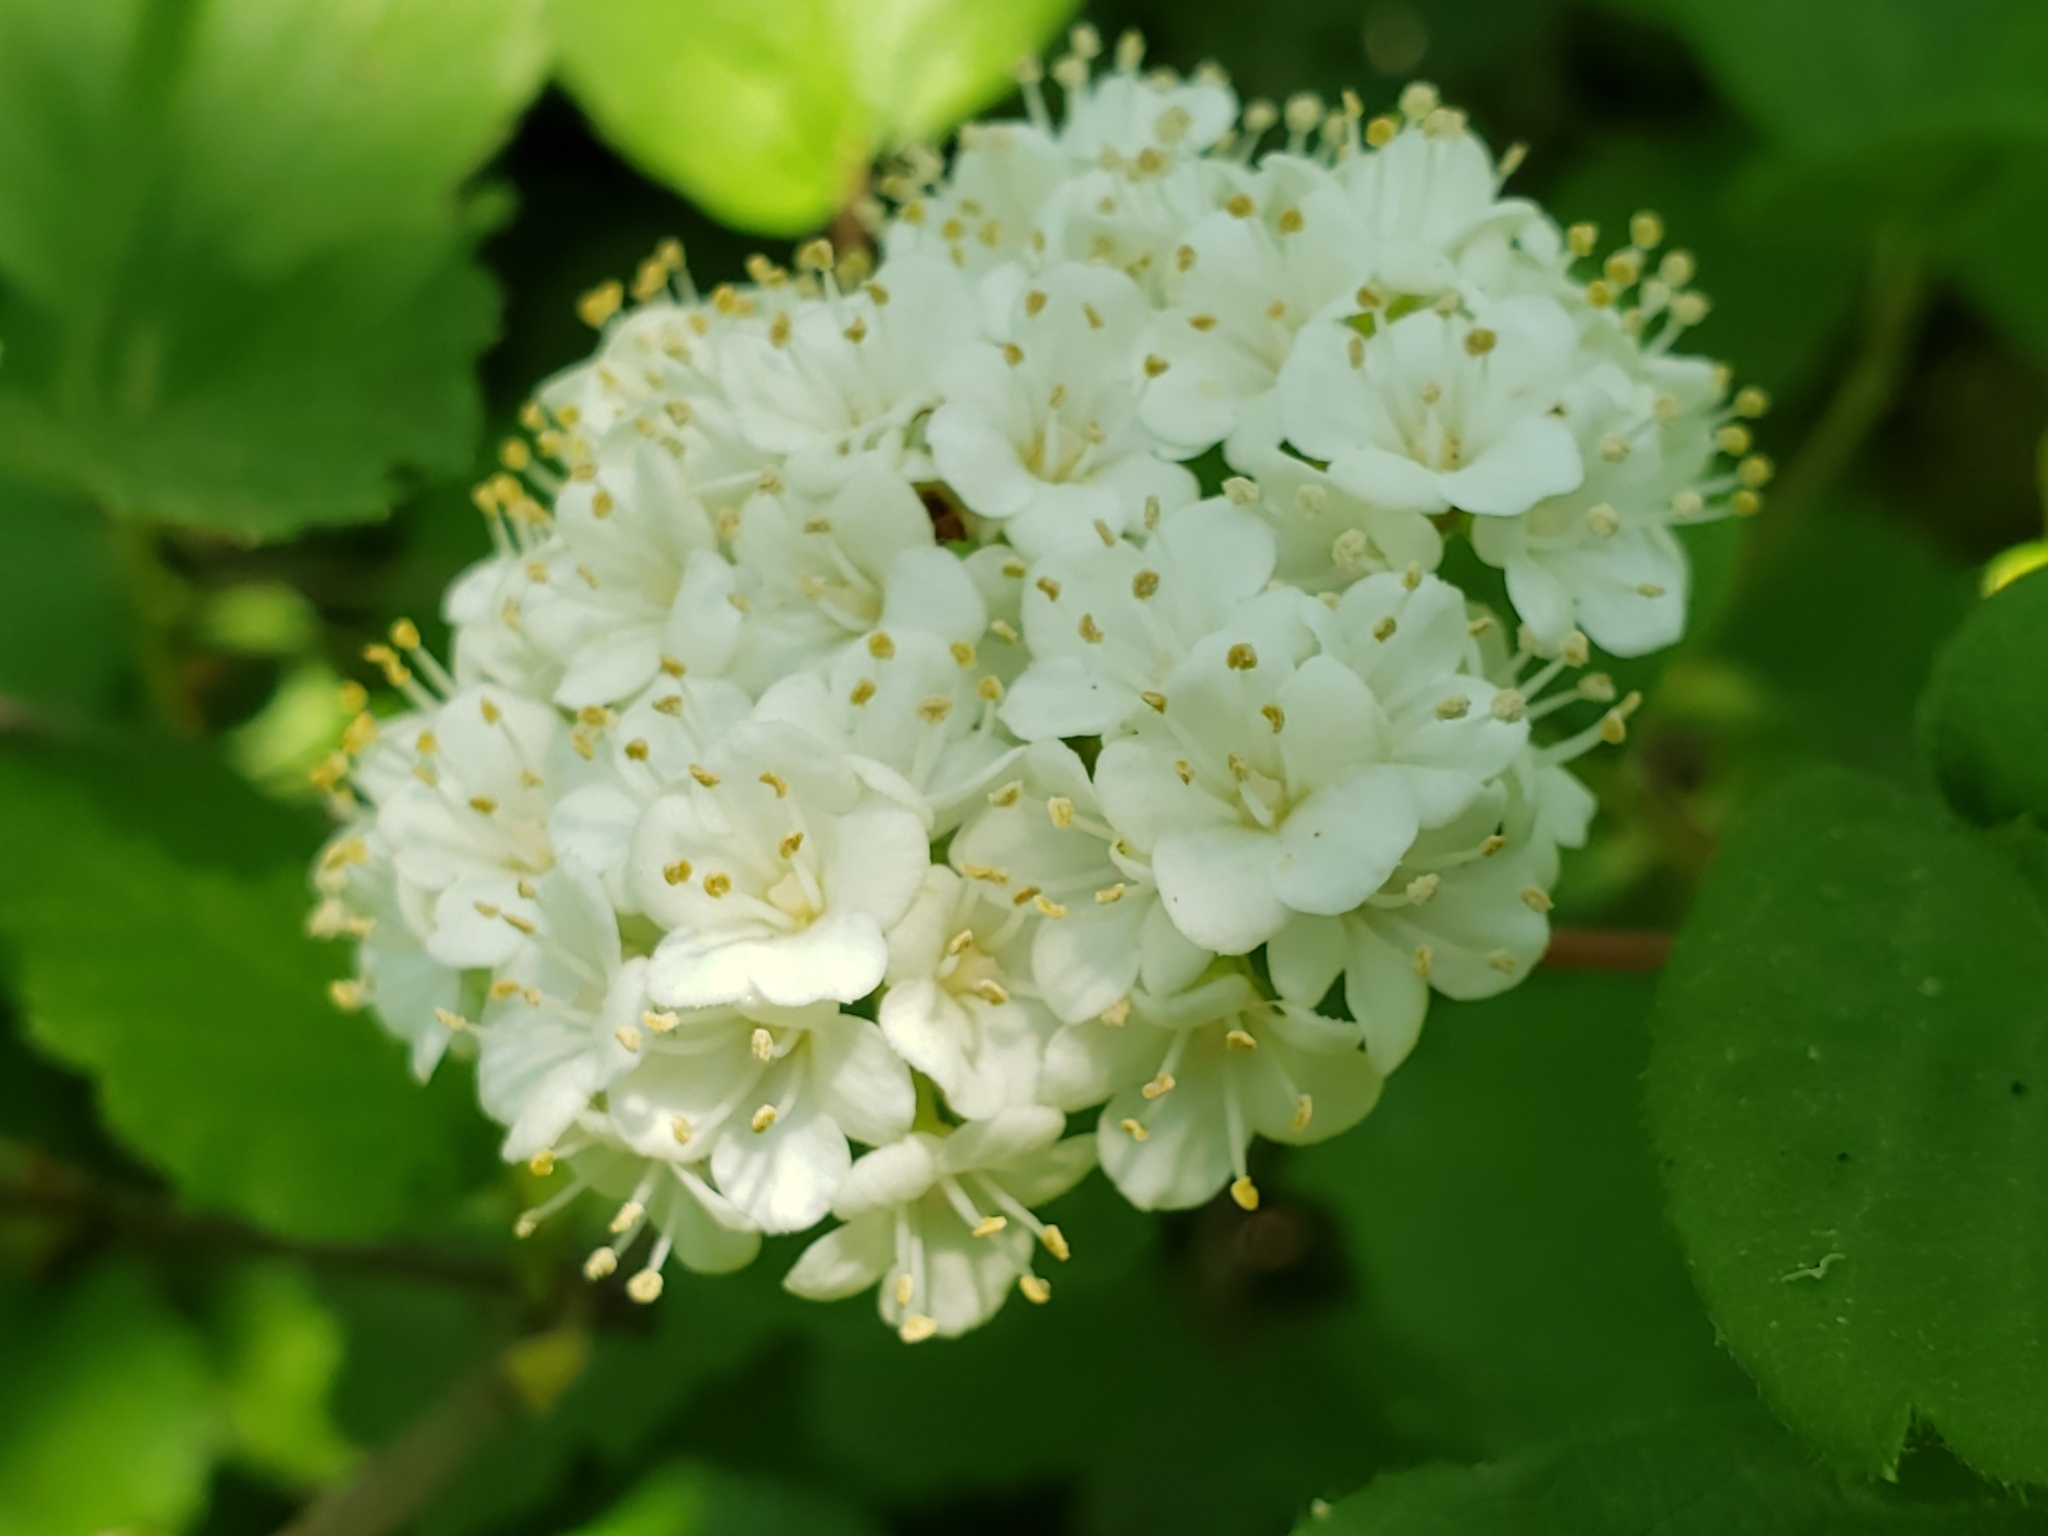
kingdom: Plantae
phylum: Tracheophyta
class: Magnoliopsida
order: Dipsacales
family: Viburnaceae
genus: Viburnum
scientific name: Viburnum ellipticum
